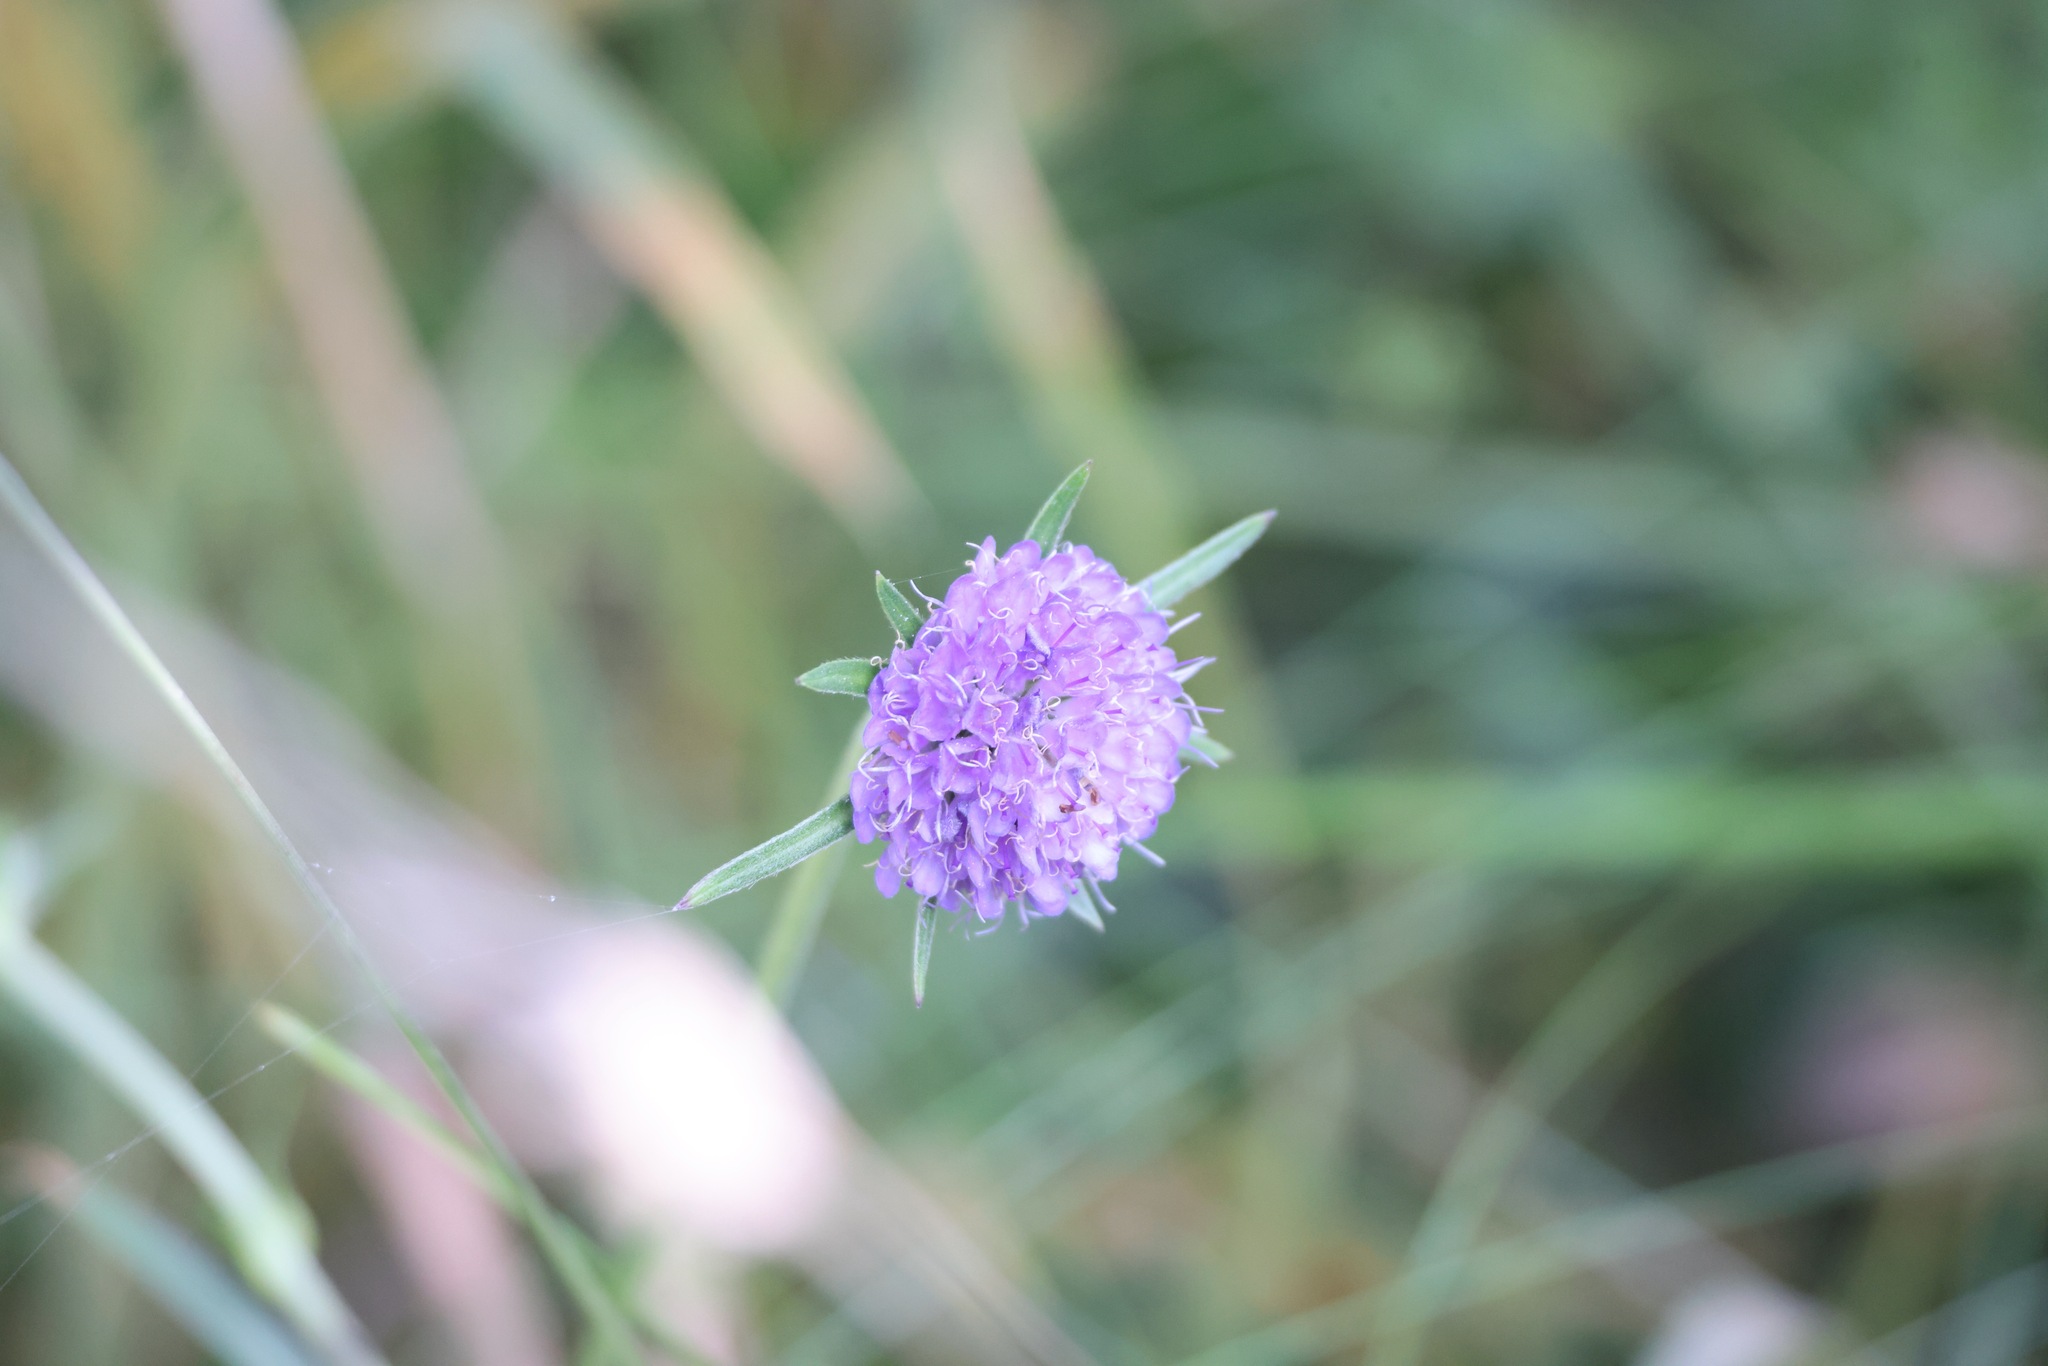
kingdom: Plantae
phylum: Tracheophyta
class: Magnoliopsida
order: Dipsacales
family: Caprifoliaceae
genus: Succisa
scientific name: Succisa pratensis
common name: Devil's-bit
